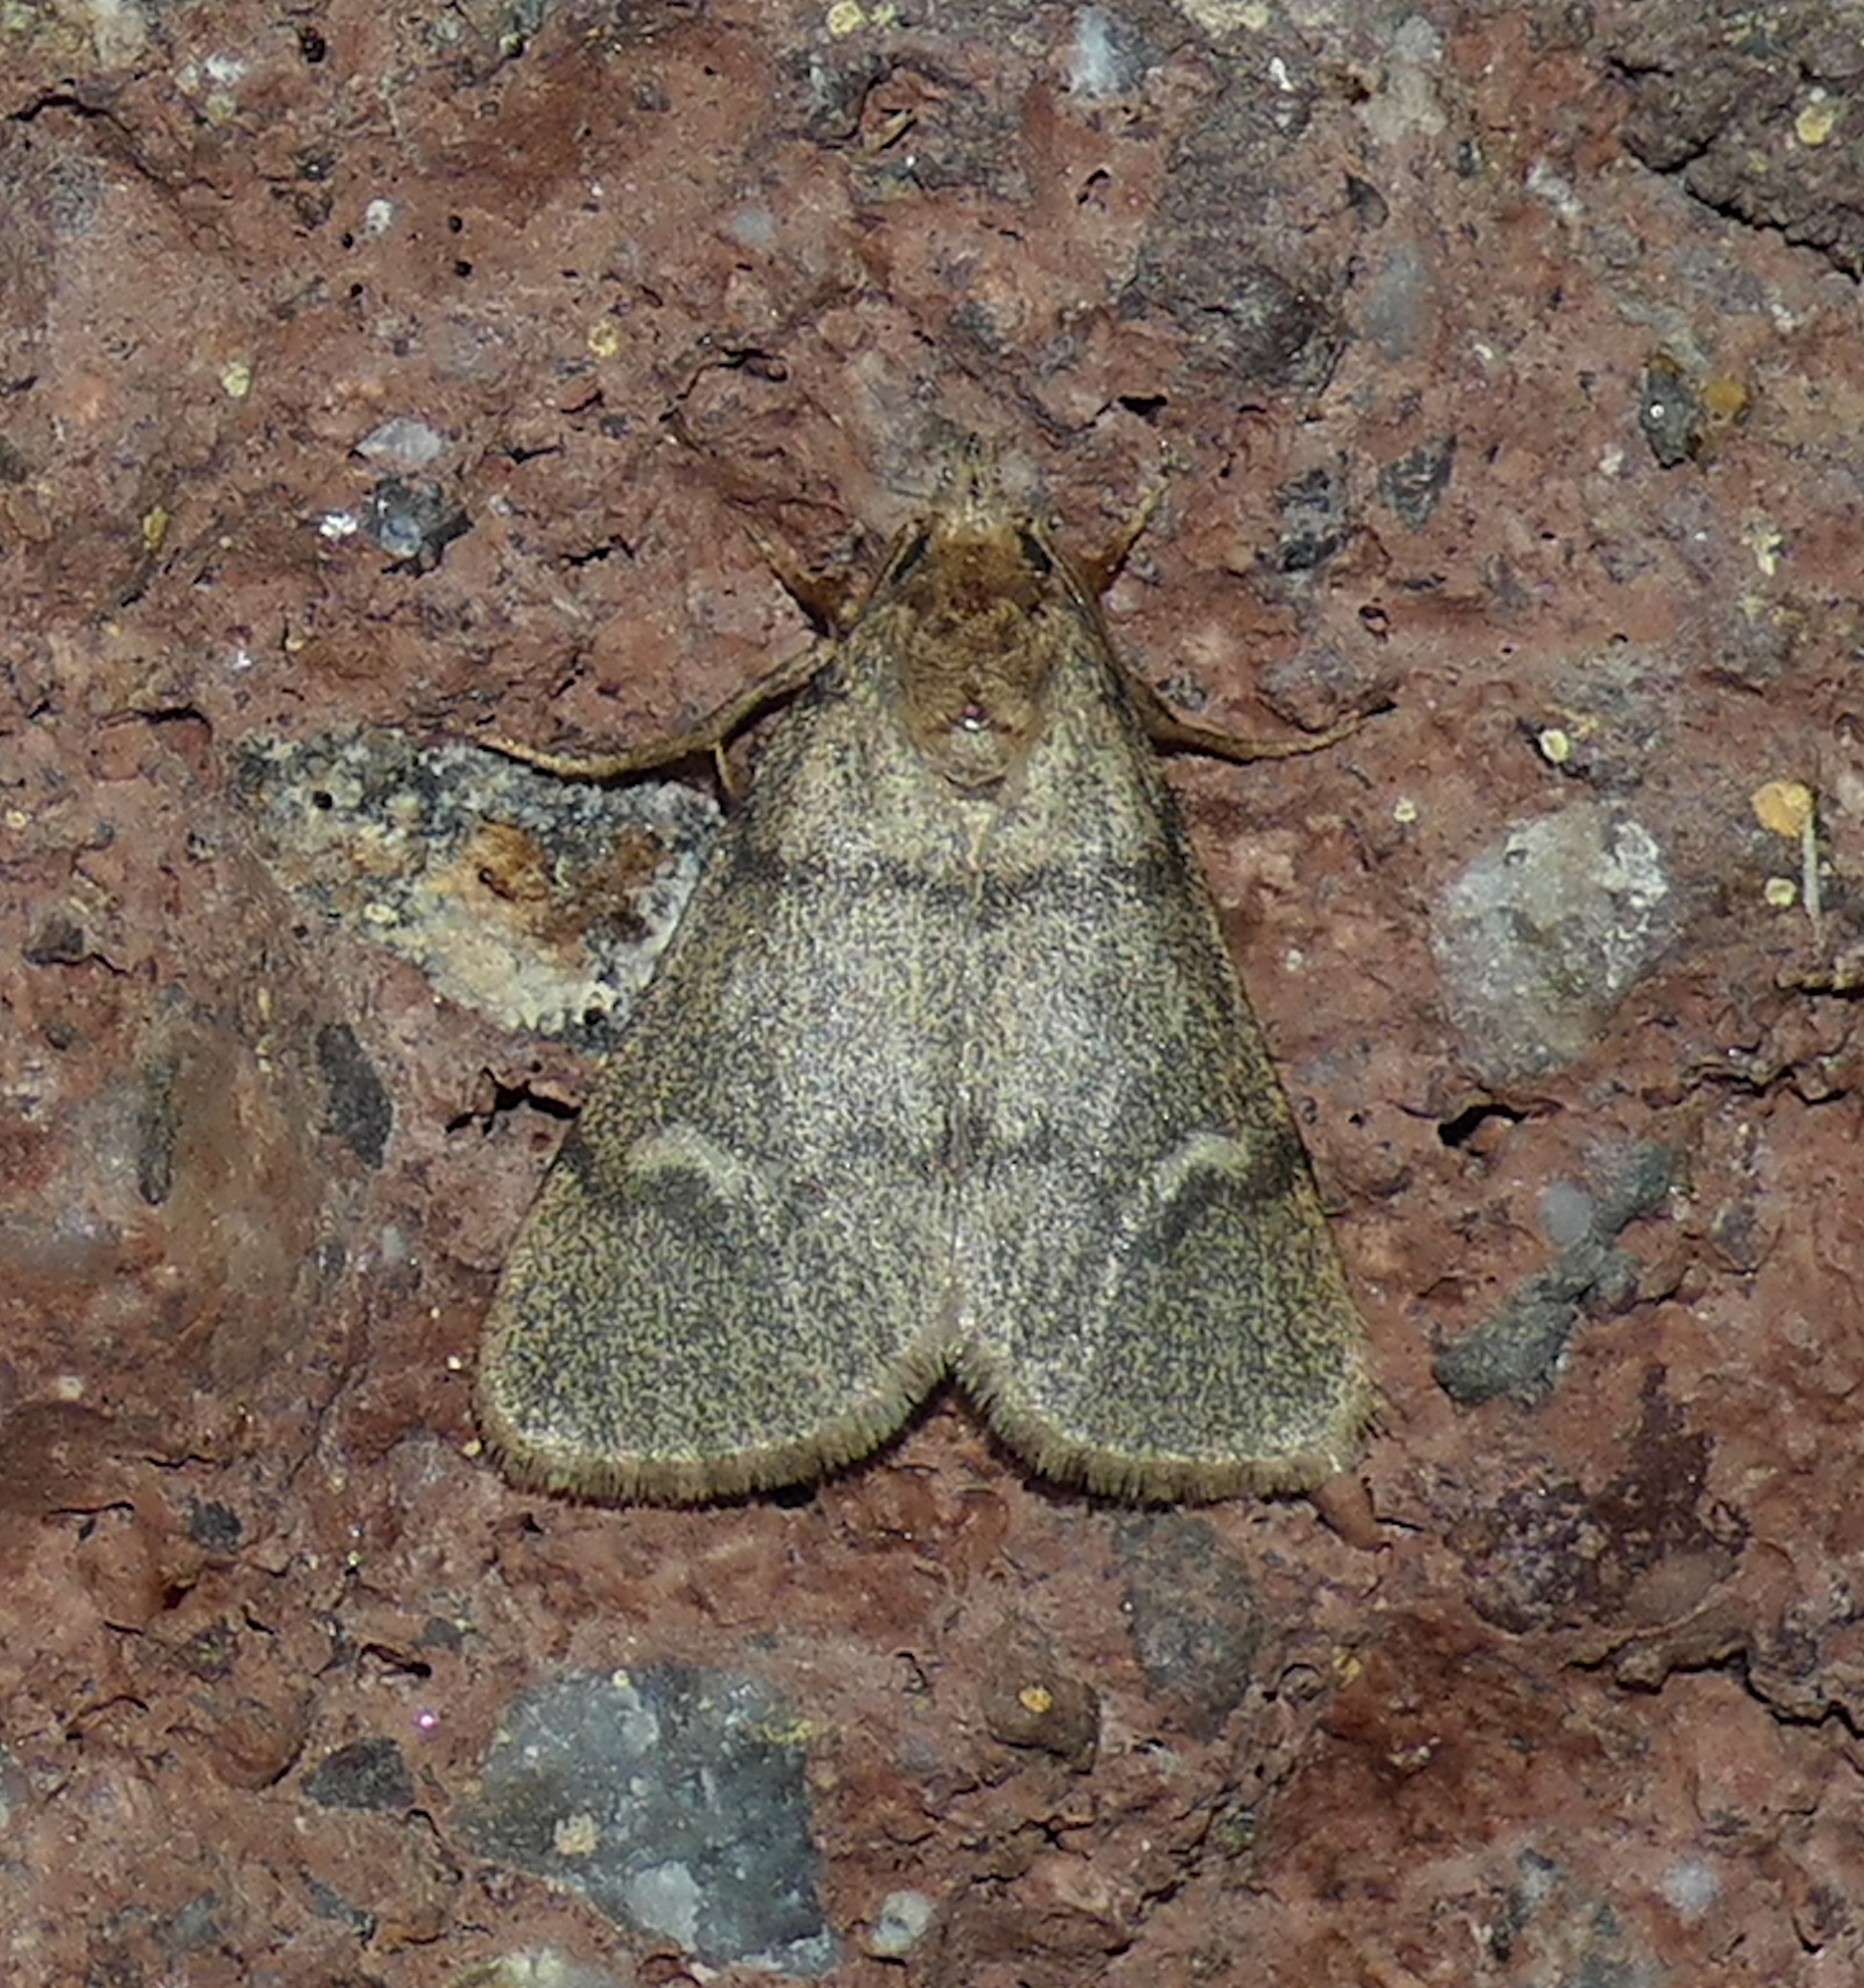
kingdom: Animalia
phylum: Arthropoda
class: Insecta
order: Lepidoptera
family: Noctuidae
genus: Narthecophora
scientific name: Narthecophora pulverea
